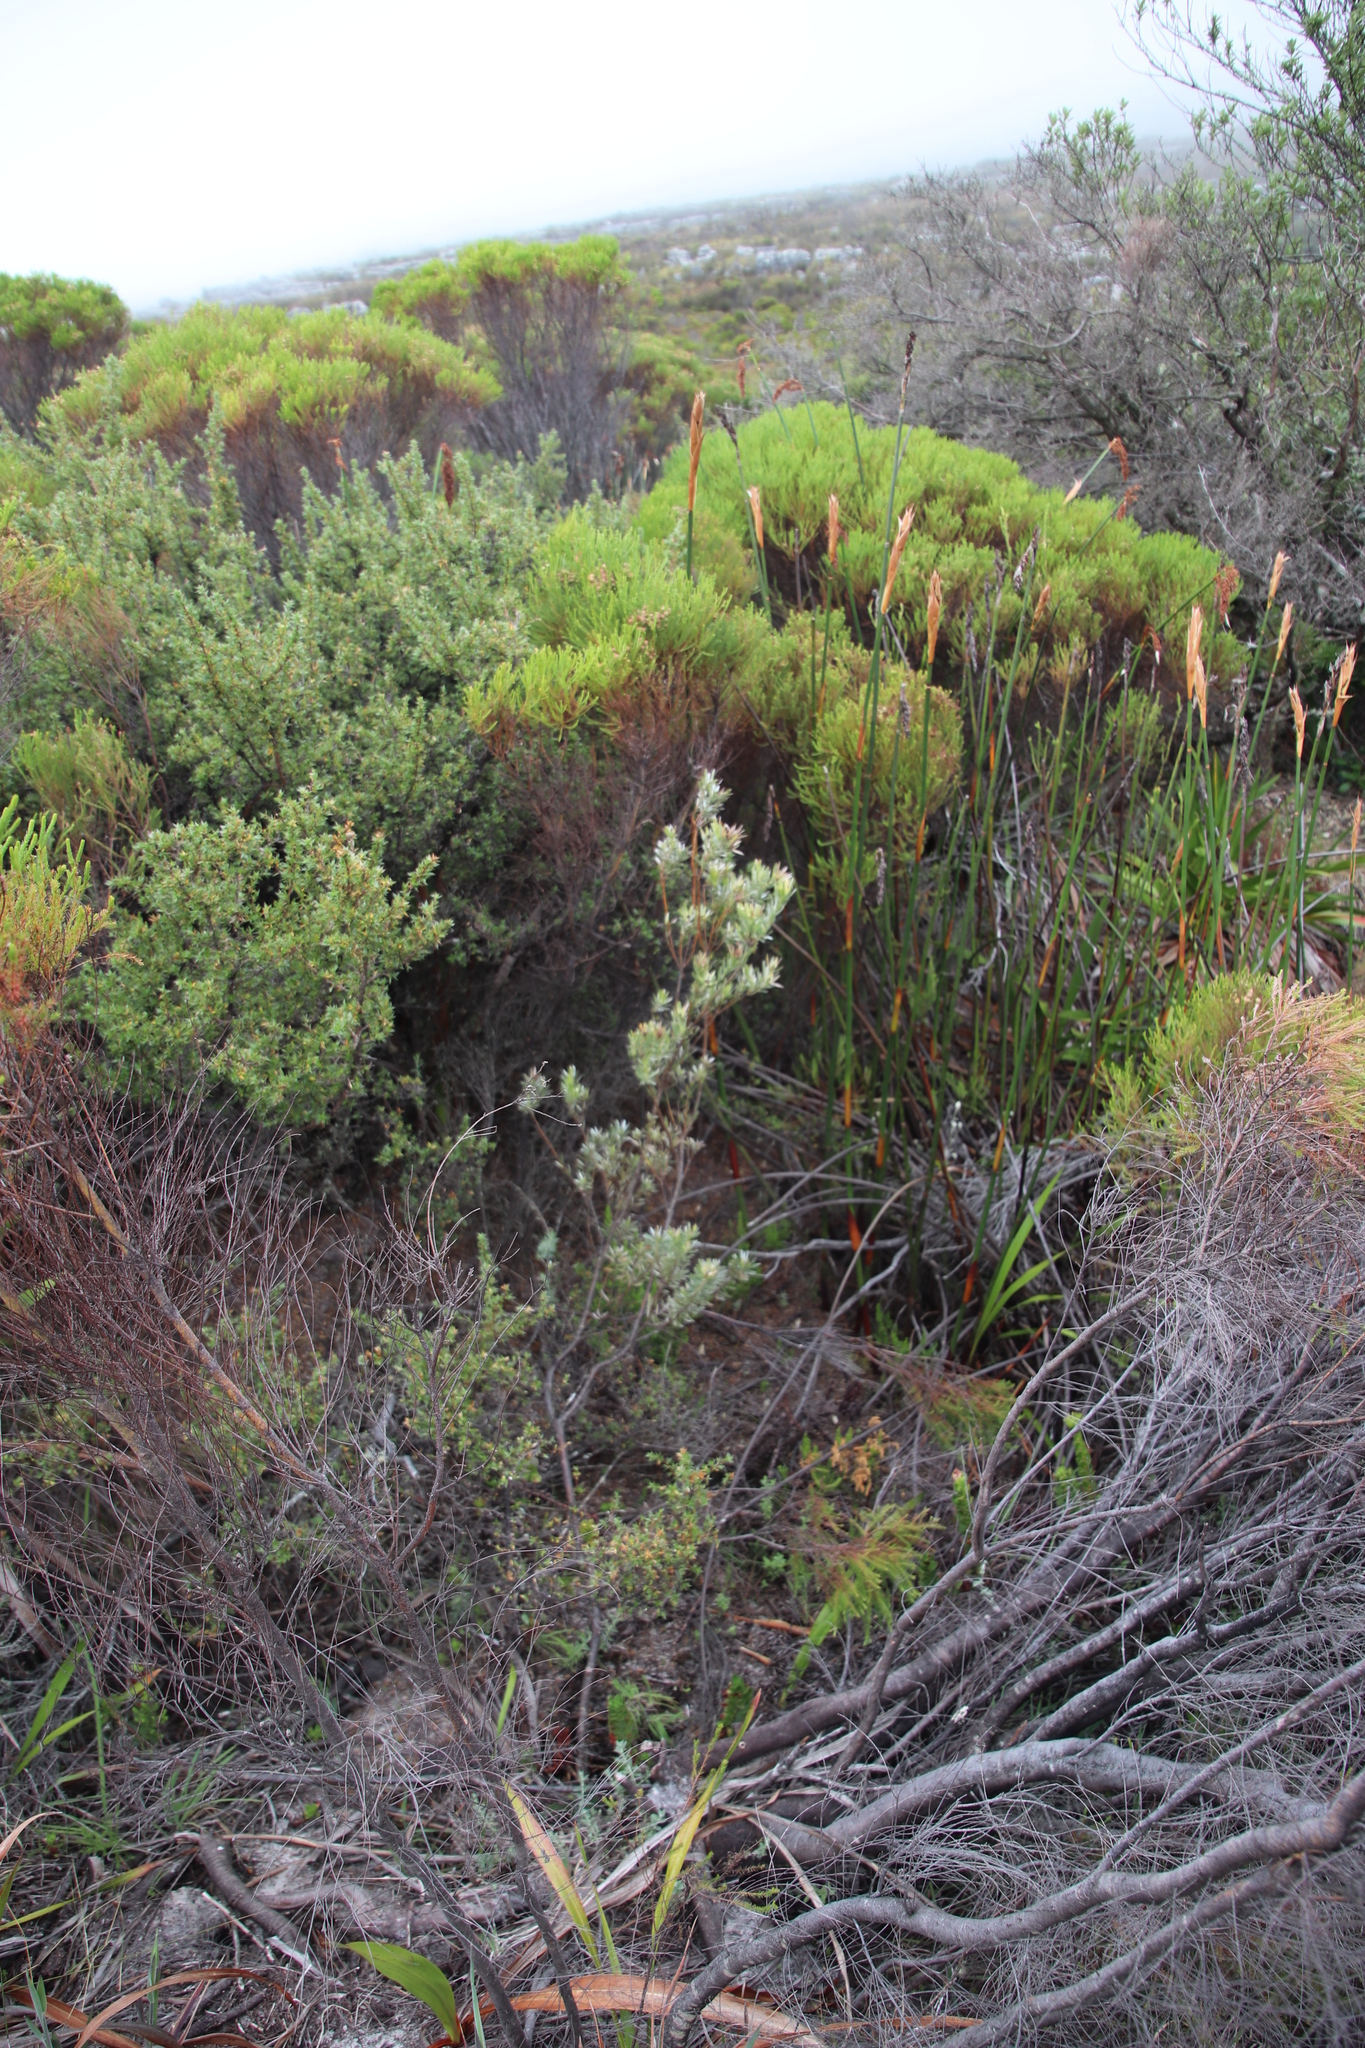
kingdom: Plantae
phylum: Tracheophyta
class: Magnoliopsida
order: Proteales
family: Proteaceae
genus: Leucadendron
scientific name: Leucadendron
